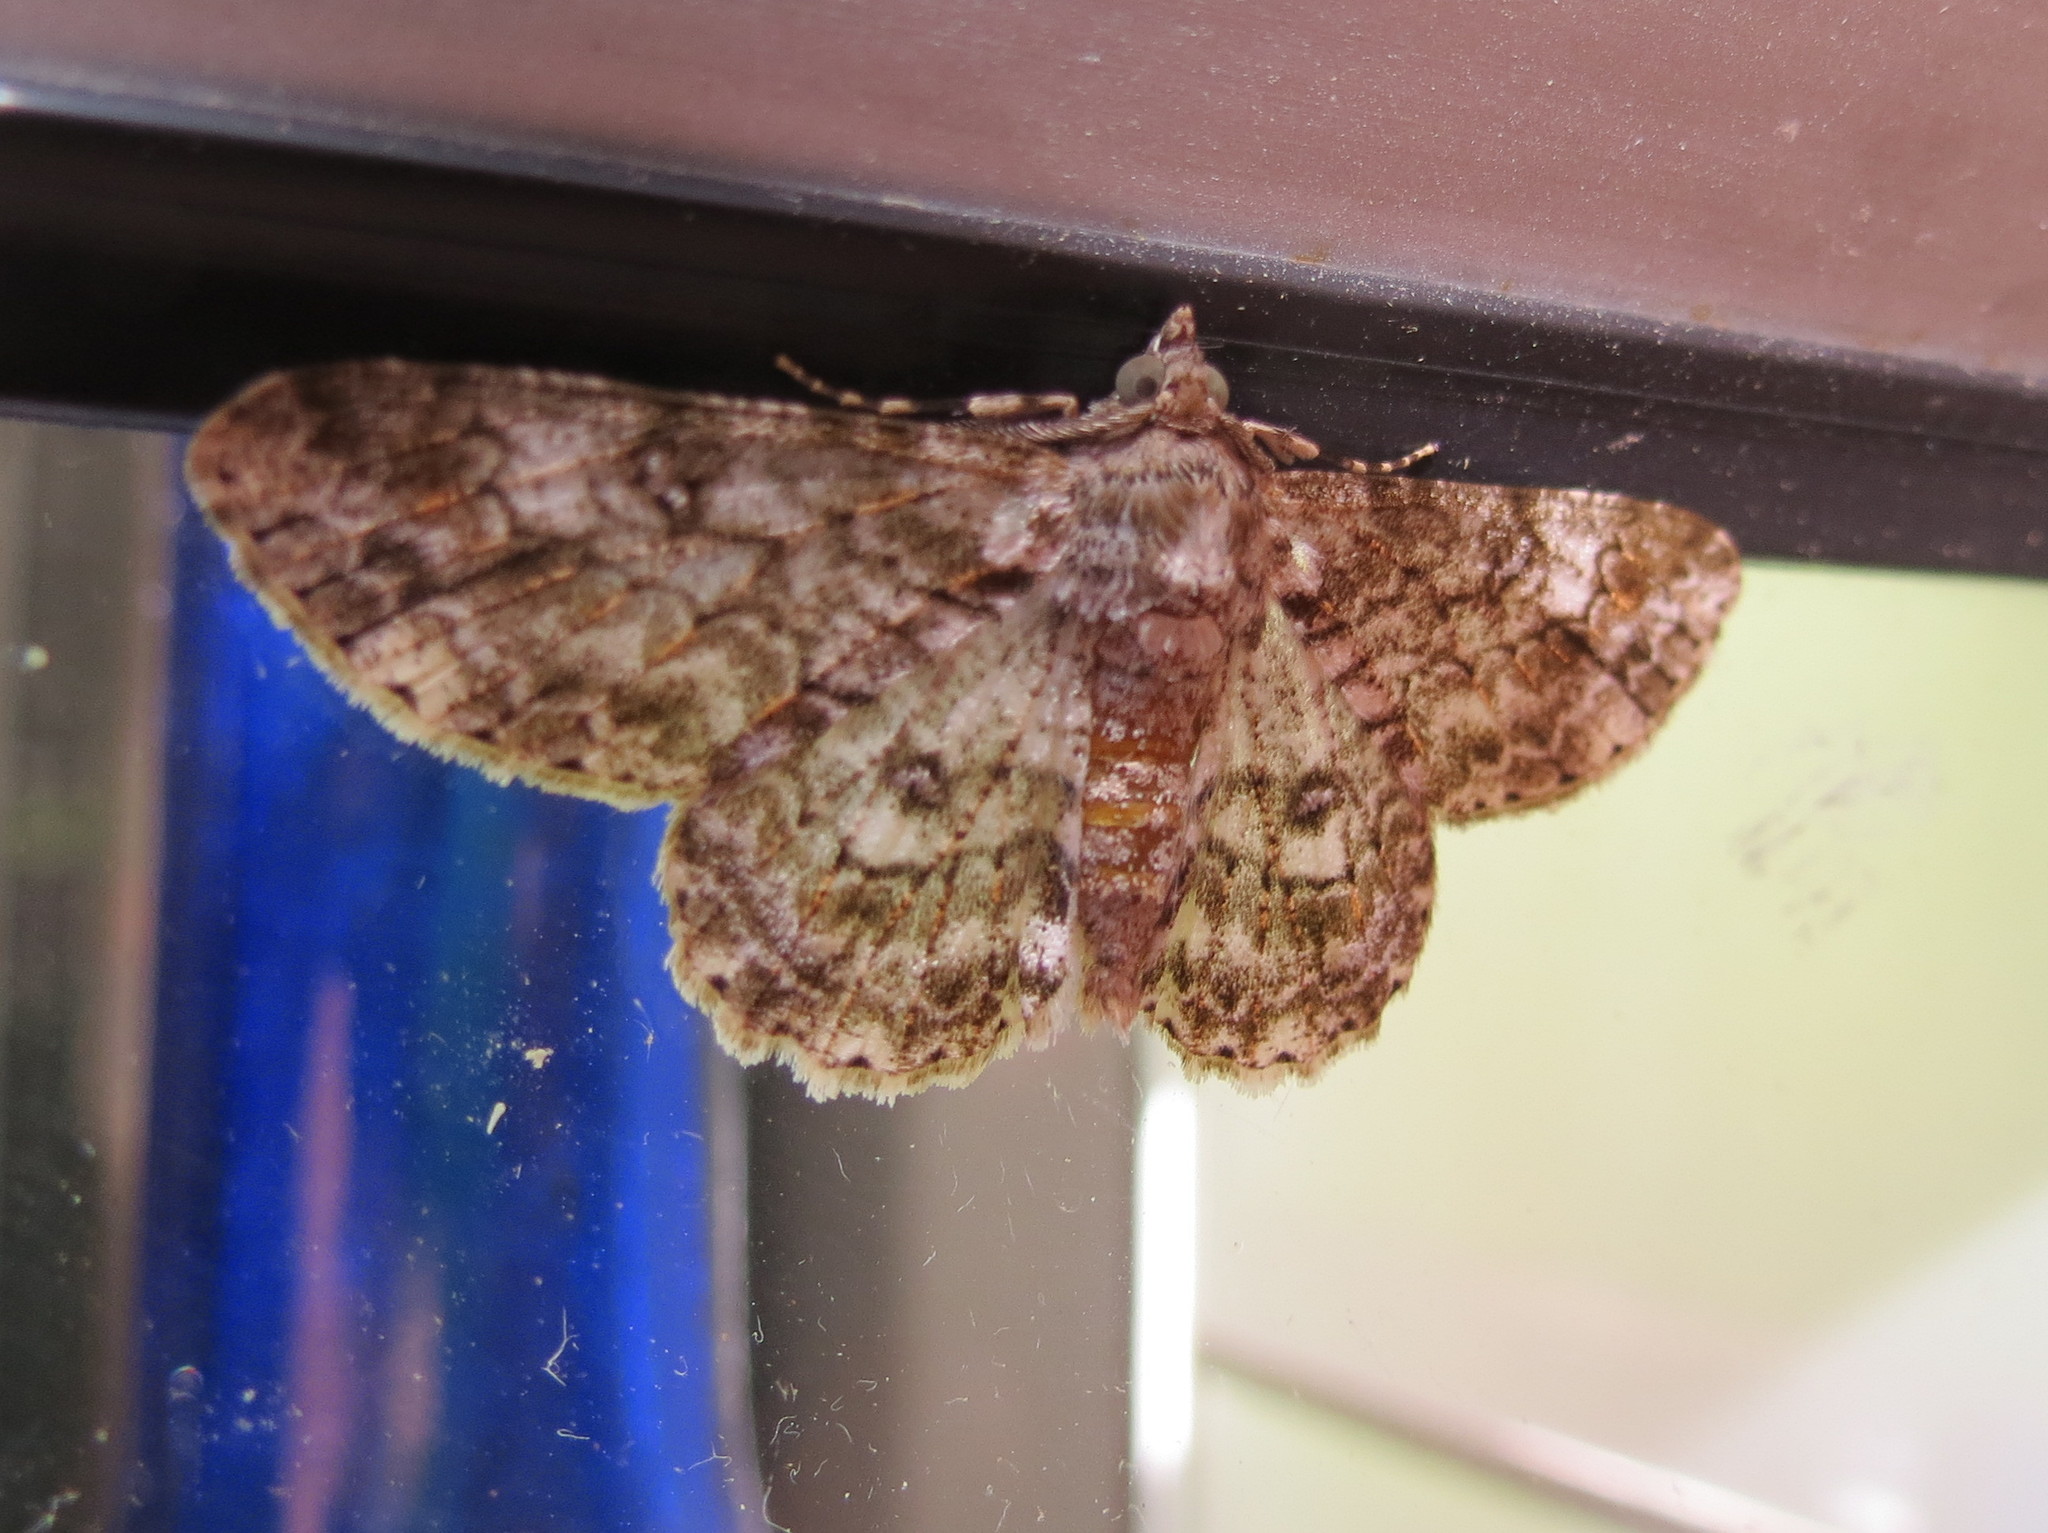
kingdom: Animalia
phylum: Arthropoda
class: Insecta
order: Lepidoptera
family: Geometridae
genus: Cleora
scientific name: Cleora munda
